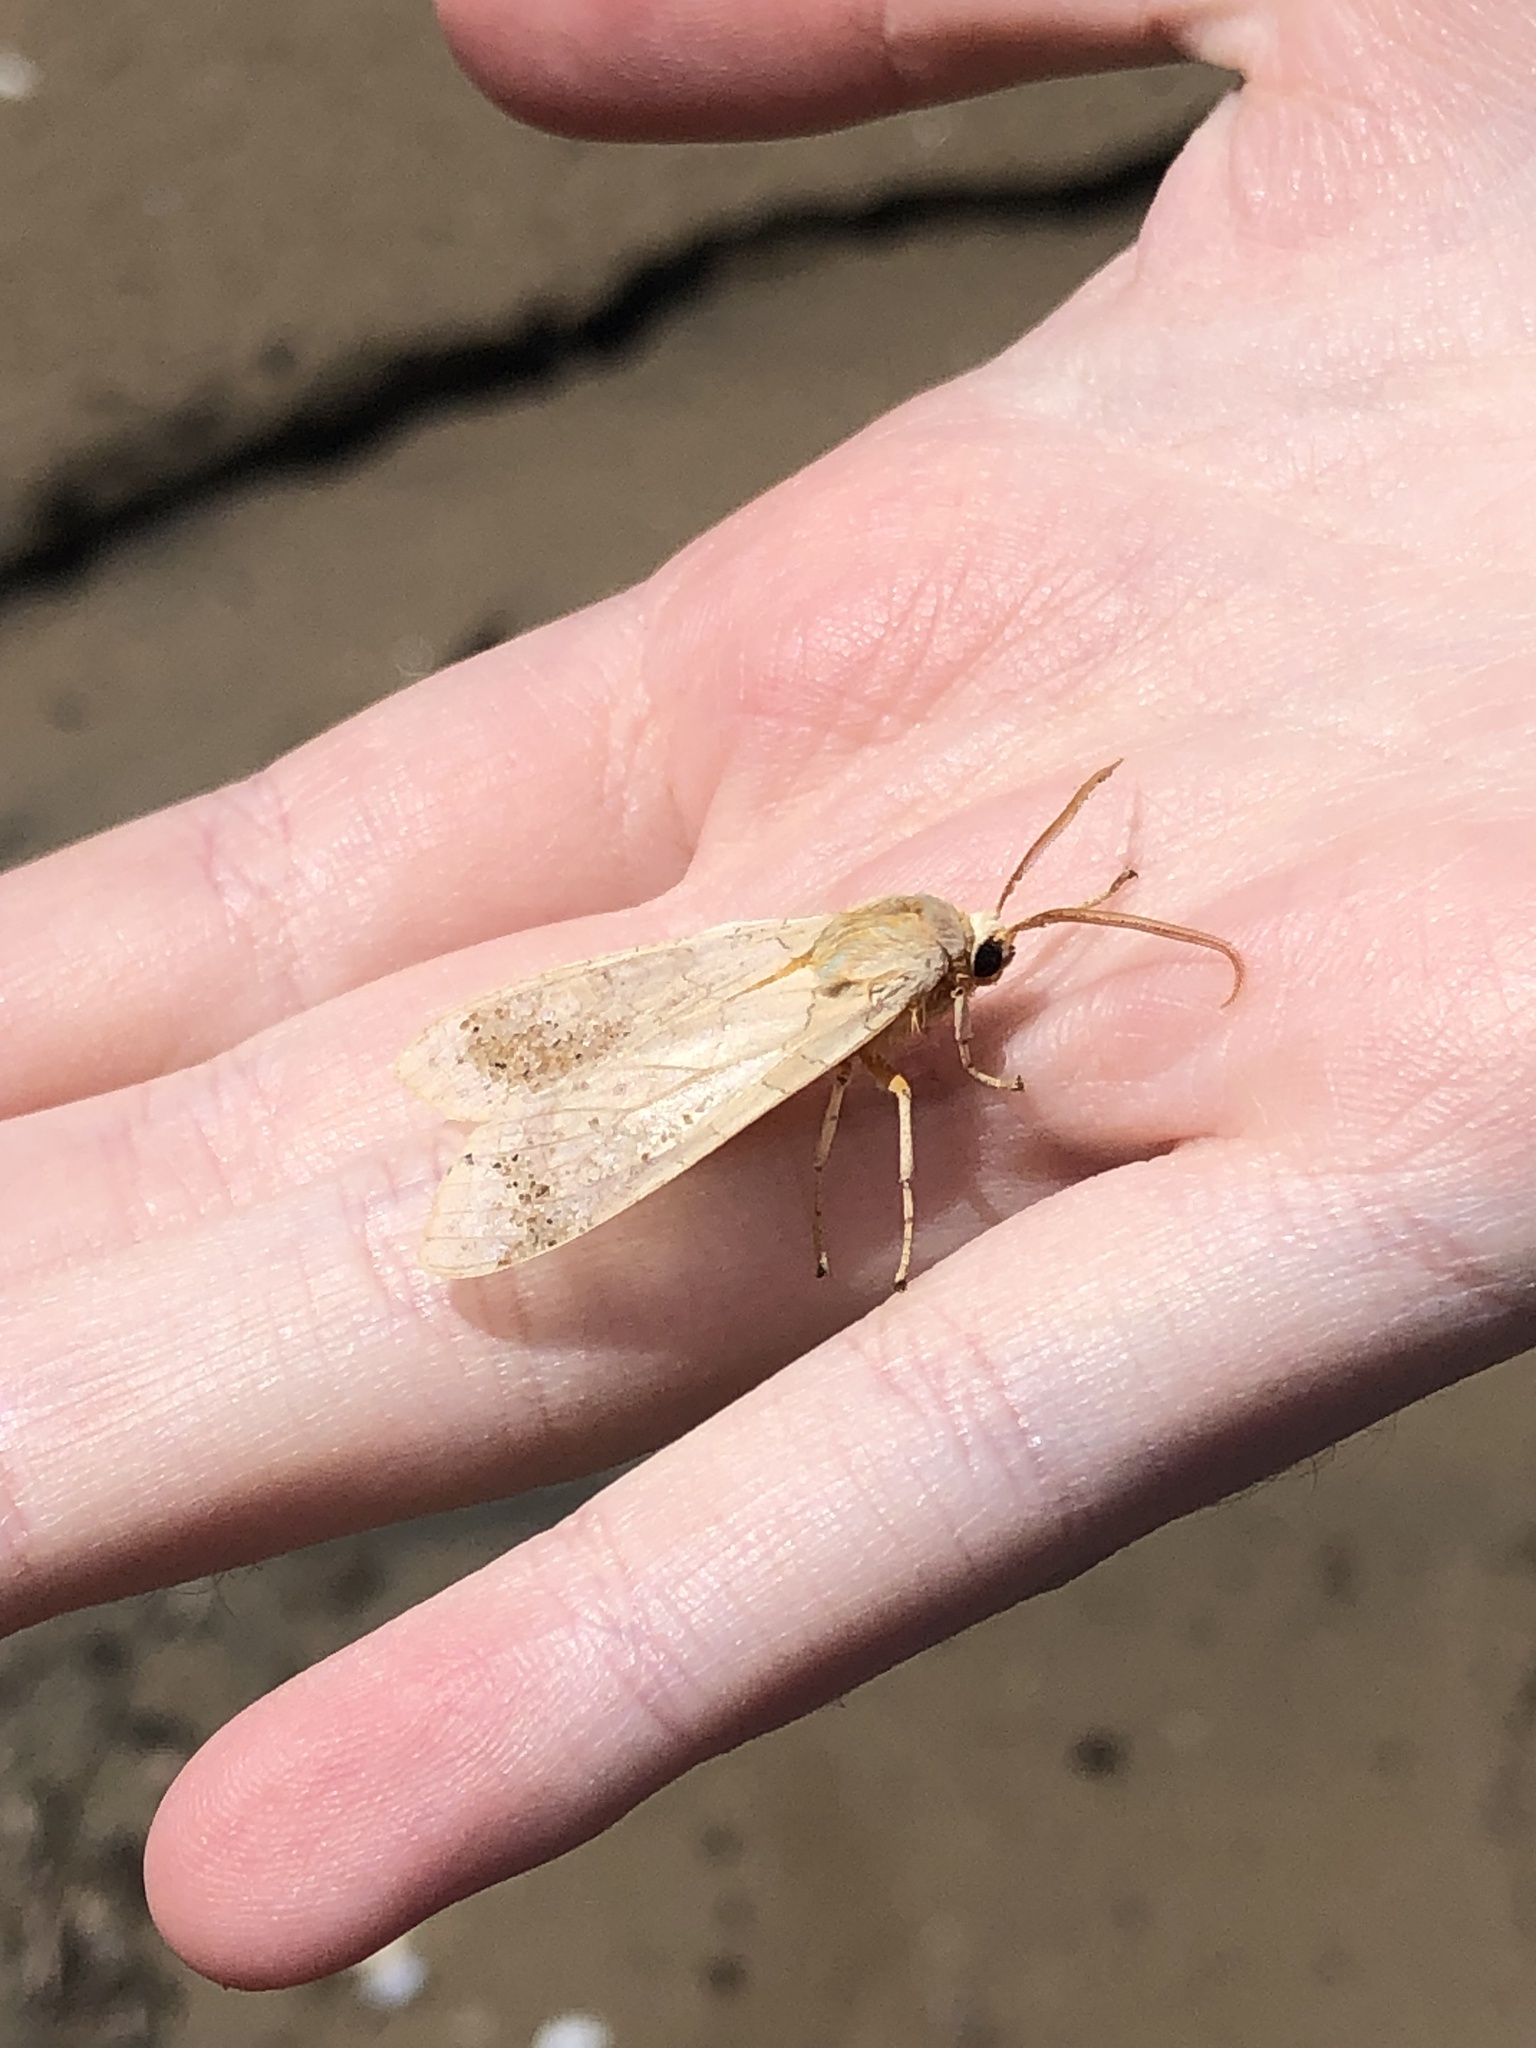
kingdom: Animalia
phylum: Arthropoda
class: Insecta
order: Lepidoptera
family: Erebidae
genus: Halysidota
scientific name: Halysidota tessellaris
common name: Banded tussock moth
